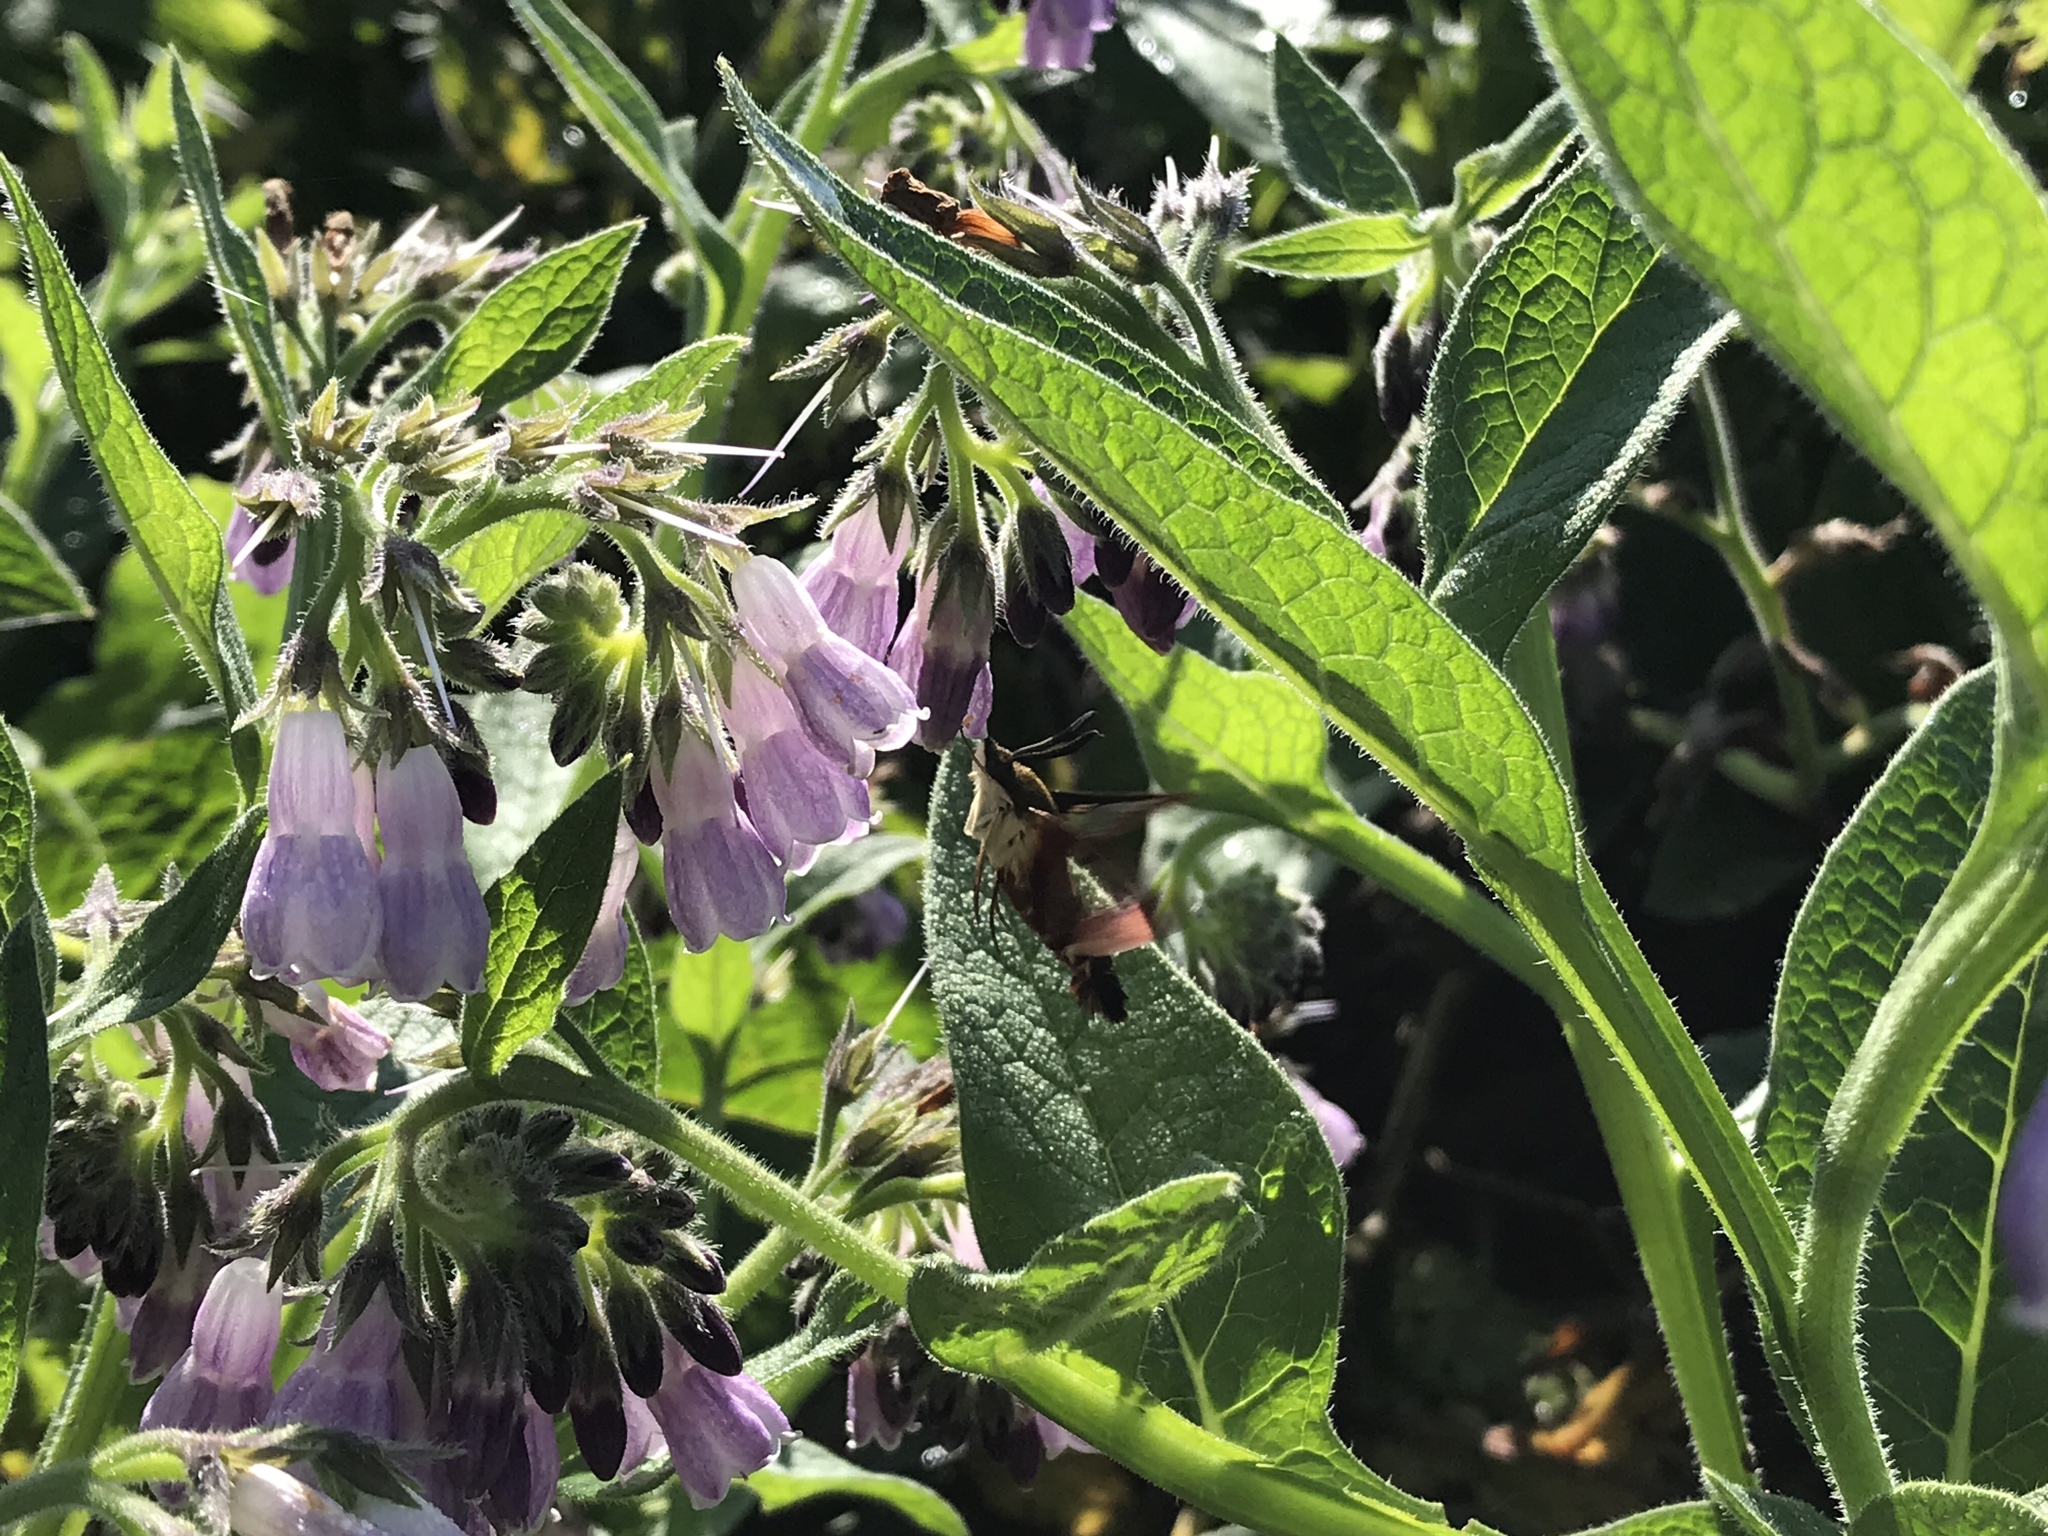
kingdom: Animalia
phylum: Arthropoda
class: Insecta
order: Lepidoptera
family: Sphingidae
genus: Hemaris
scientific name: Hemaris thysbe
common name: Common clear-wing
